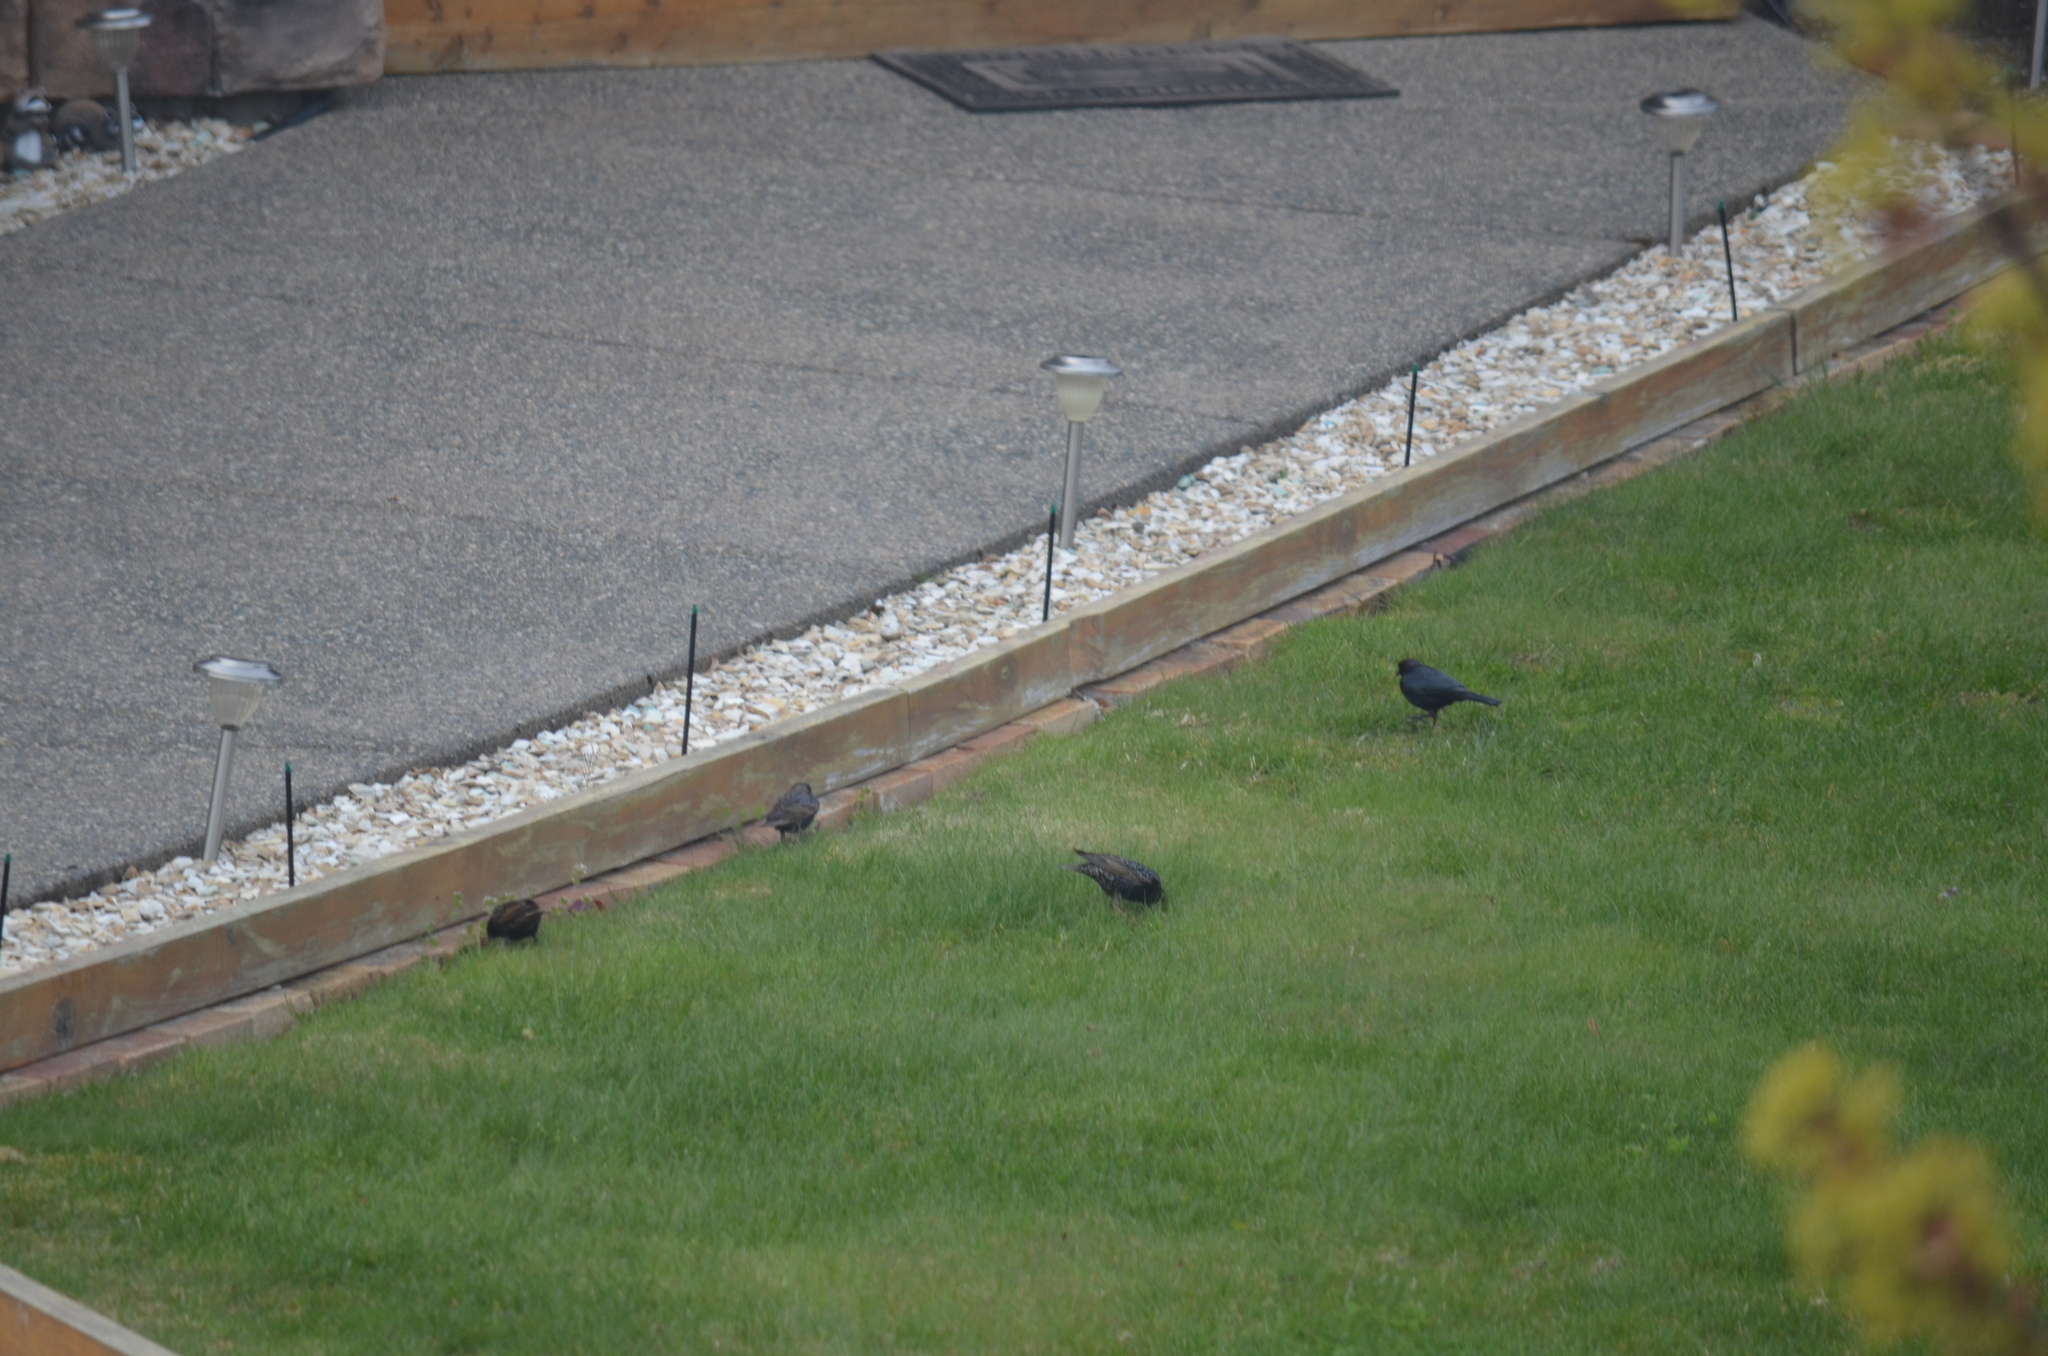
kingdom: Animalia
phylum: Chordata
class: Aves
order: Passeriformes
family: Sturnidae
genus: Sturnus
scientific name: Sturnus vulgaris
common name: Common starling
